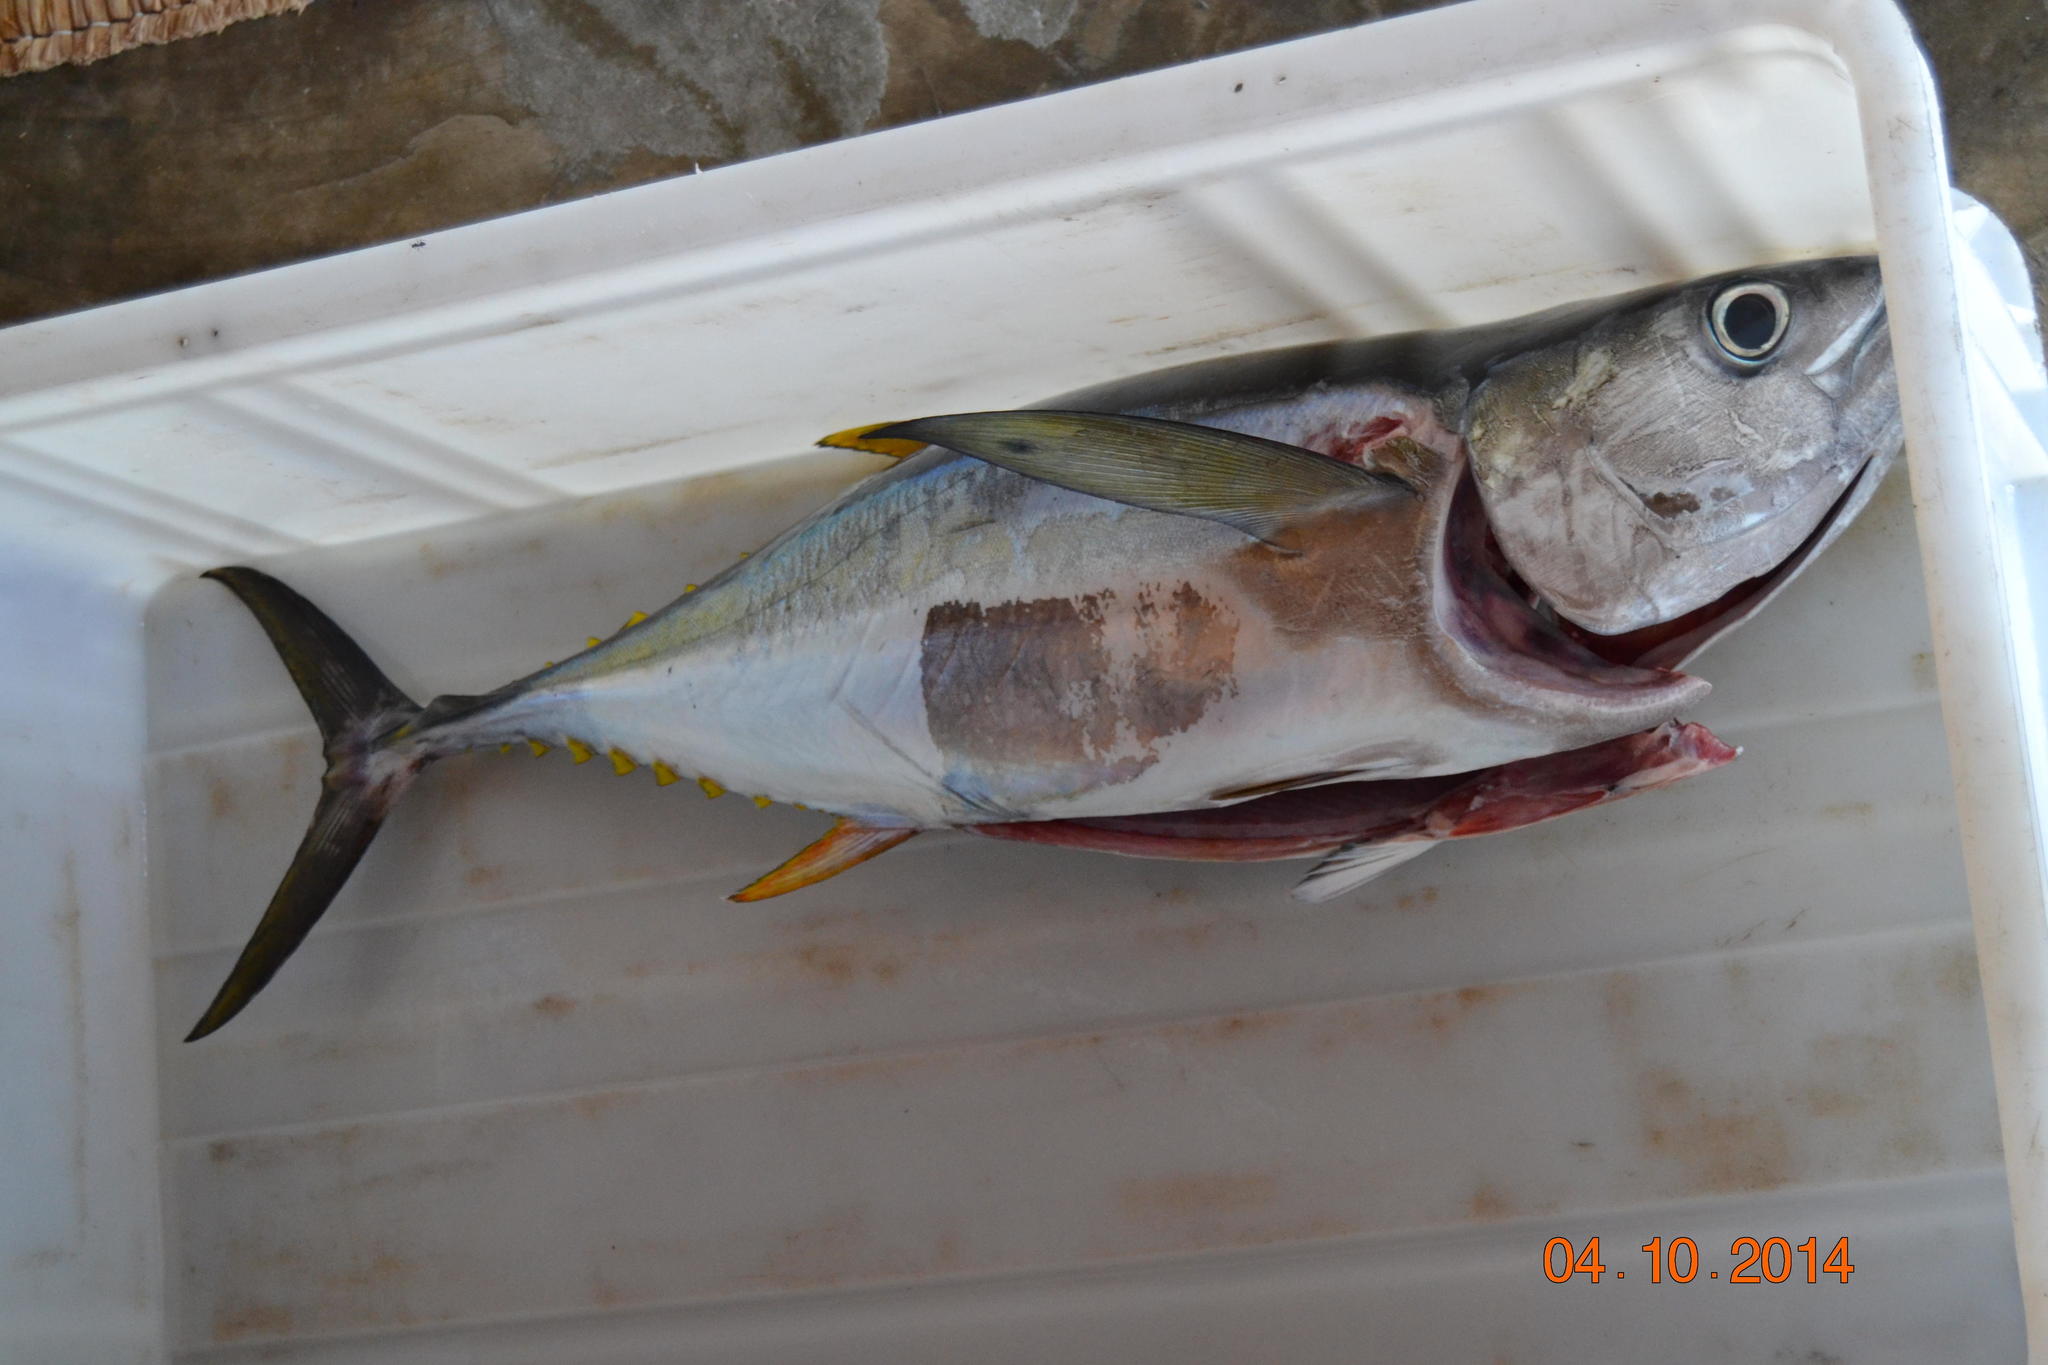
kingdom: Animalia
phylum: Chordata
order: Perciformes
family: Scombridae
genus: Thunnus
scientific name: Thunnus albacares
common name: Yellowfin tuna
